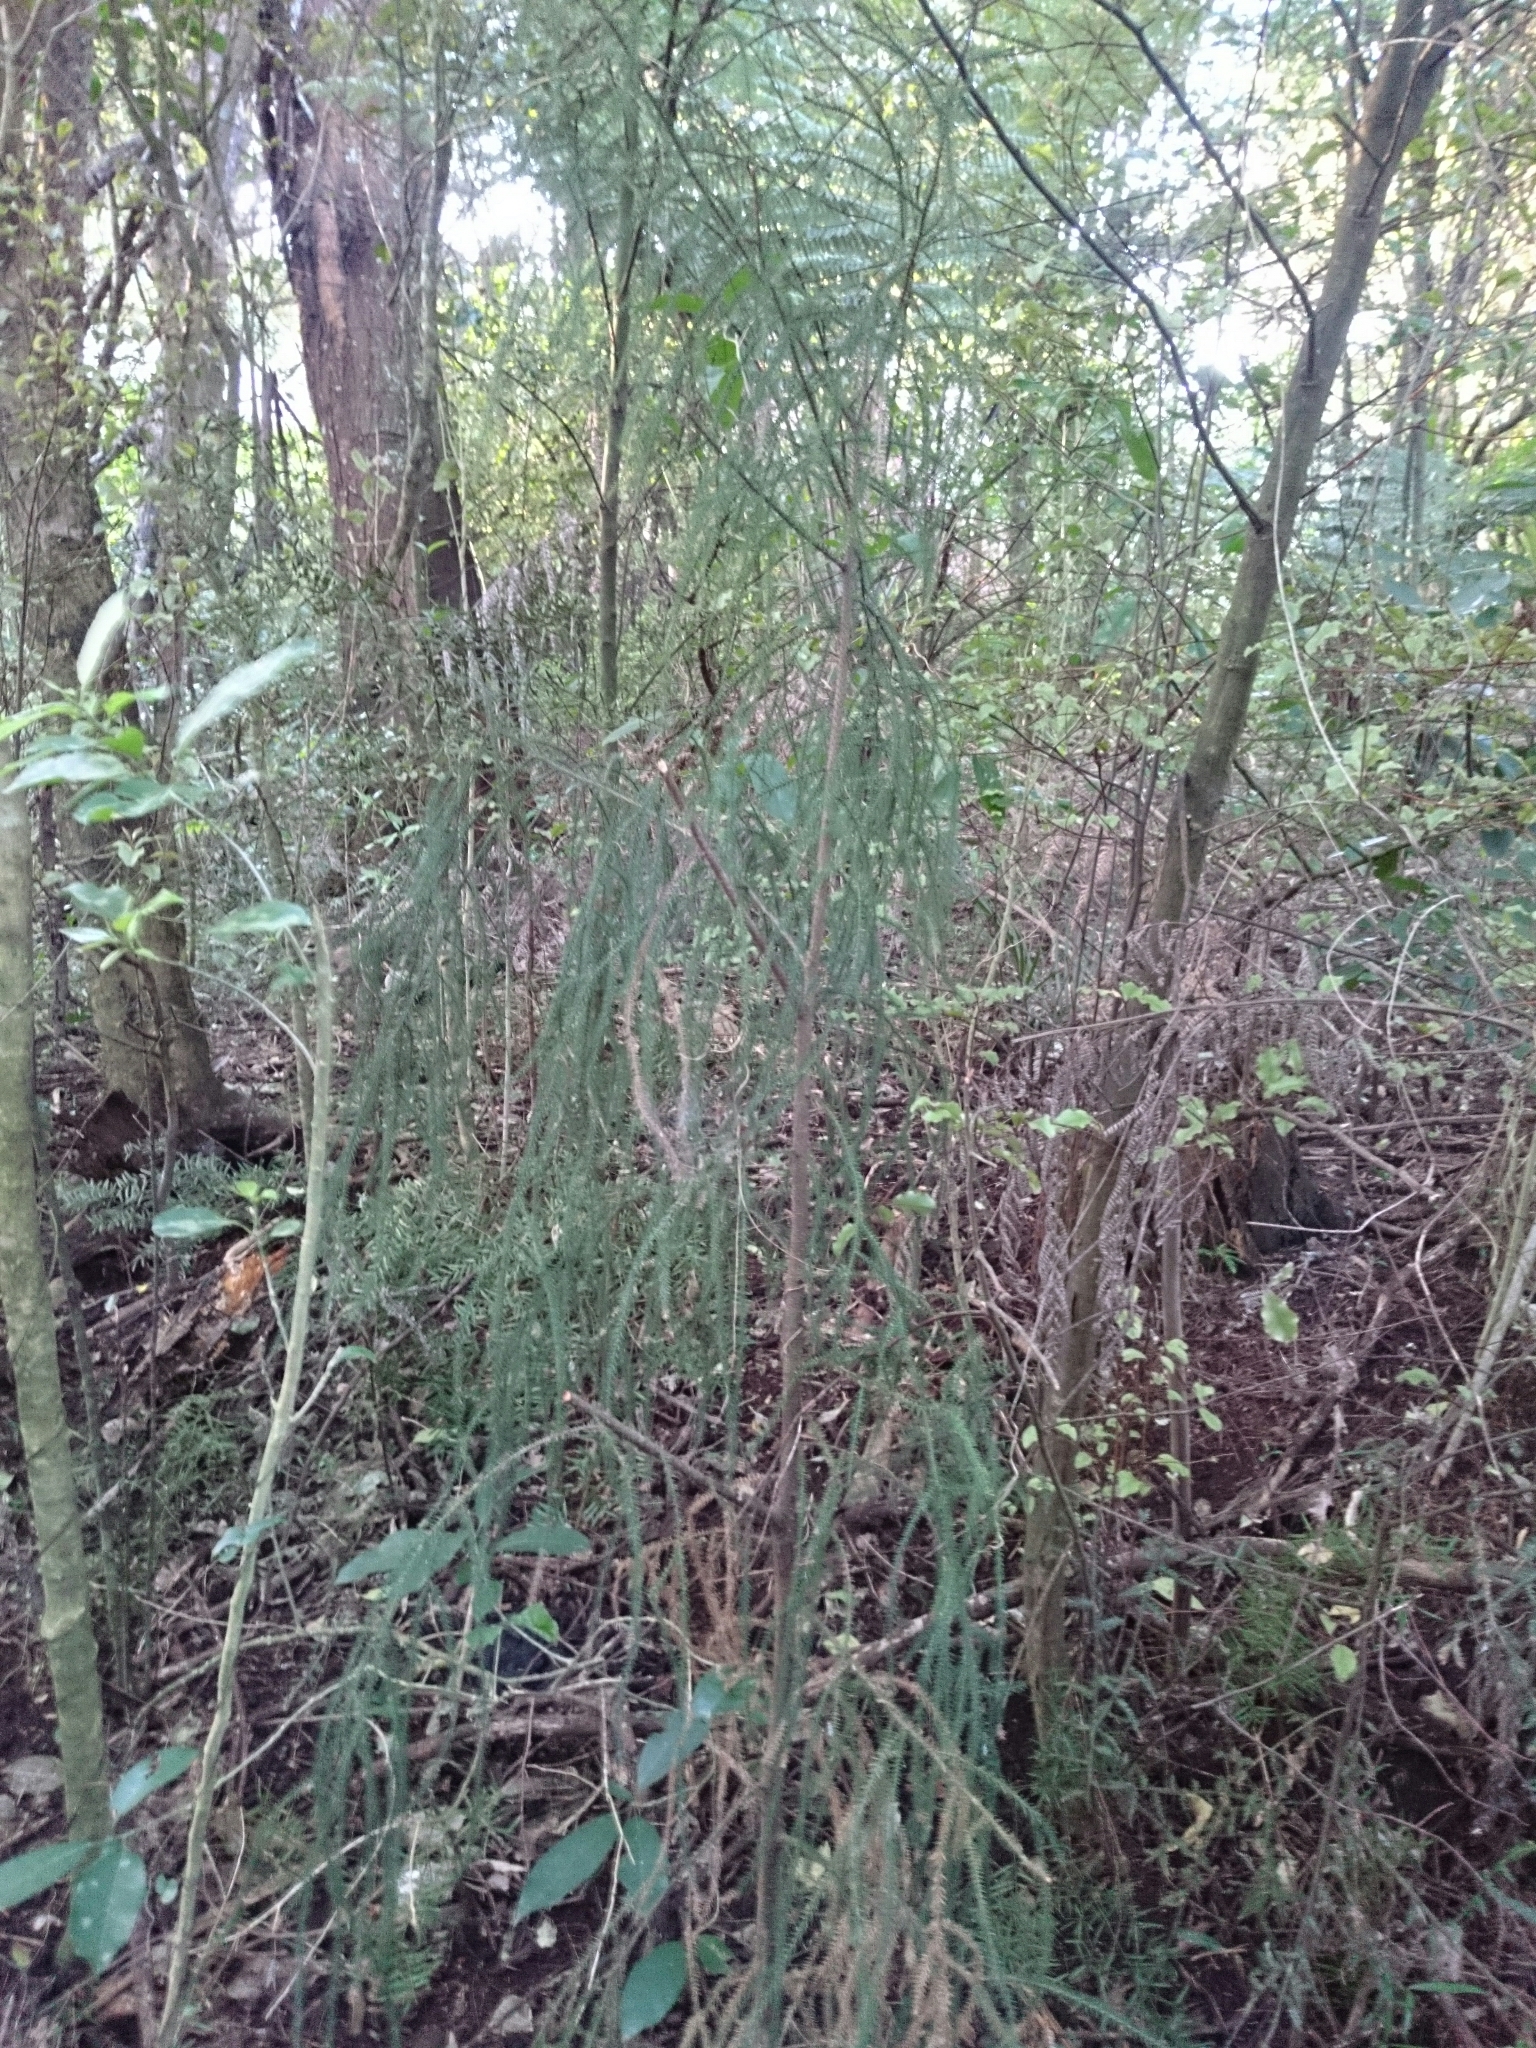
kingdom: Plantae
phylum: Tracheophyta
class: Pinopsida
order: Pinales
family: Podocarpaceae
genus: Dacrydium
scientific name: Dacrydium cupressinum
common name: Red pine
